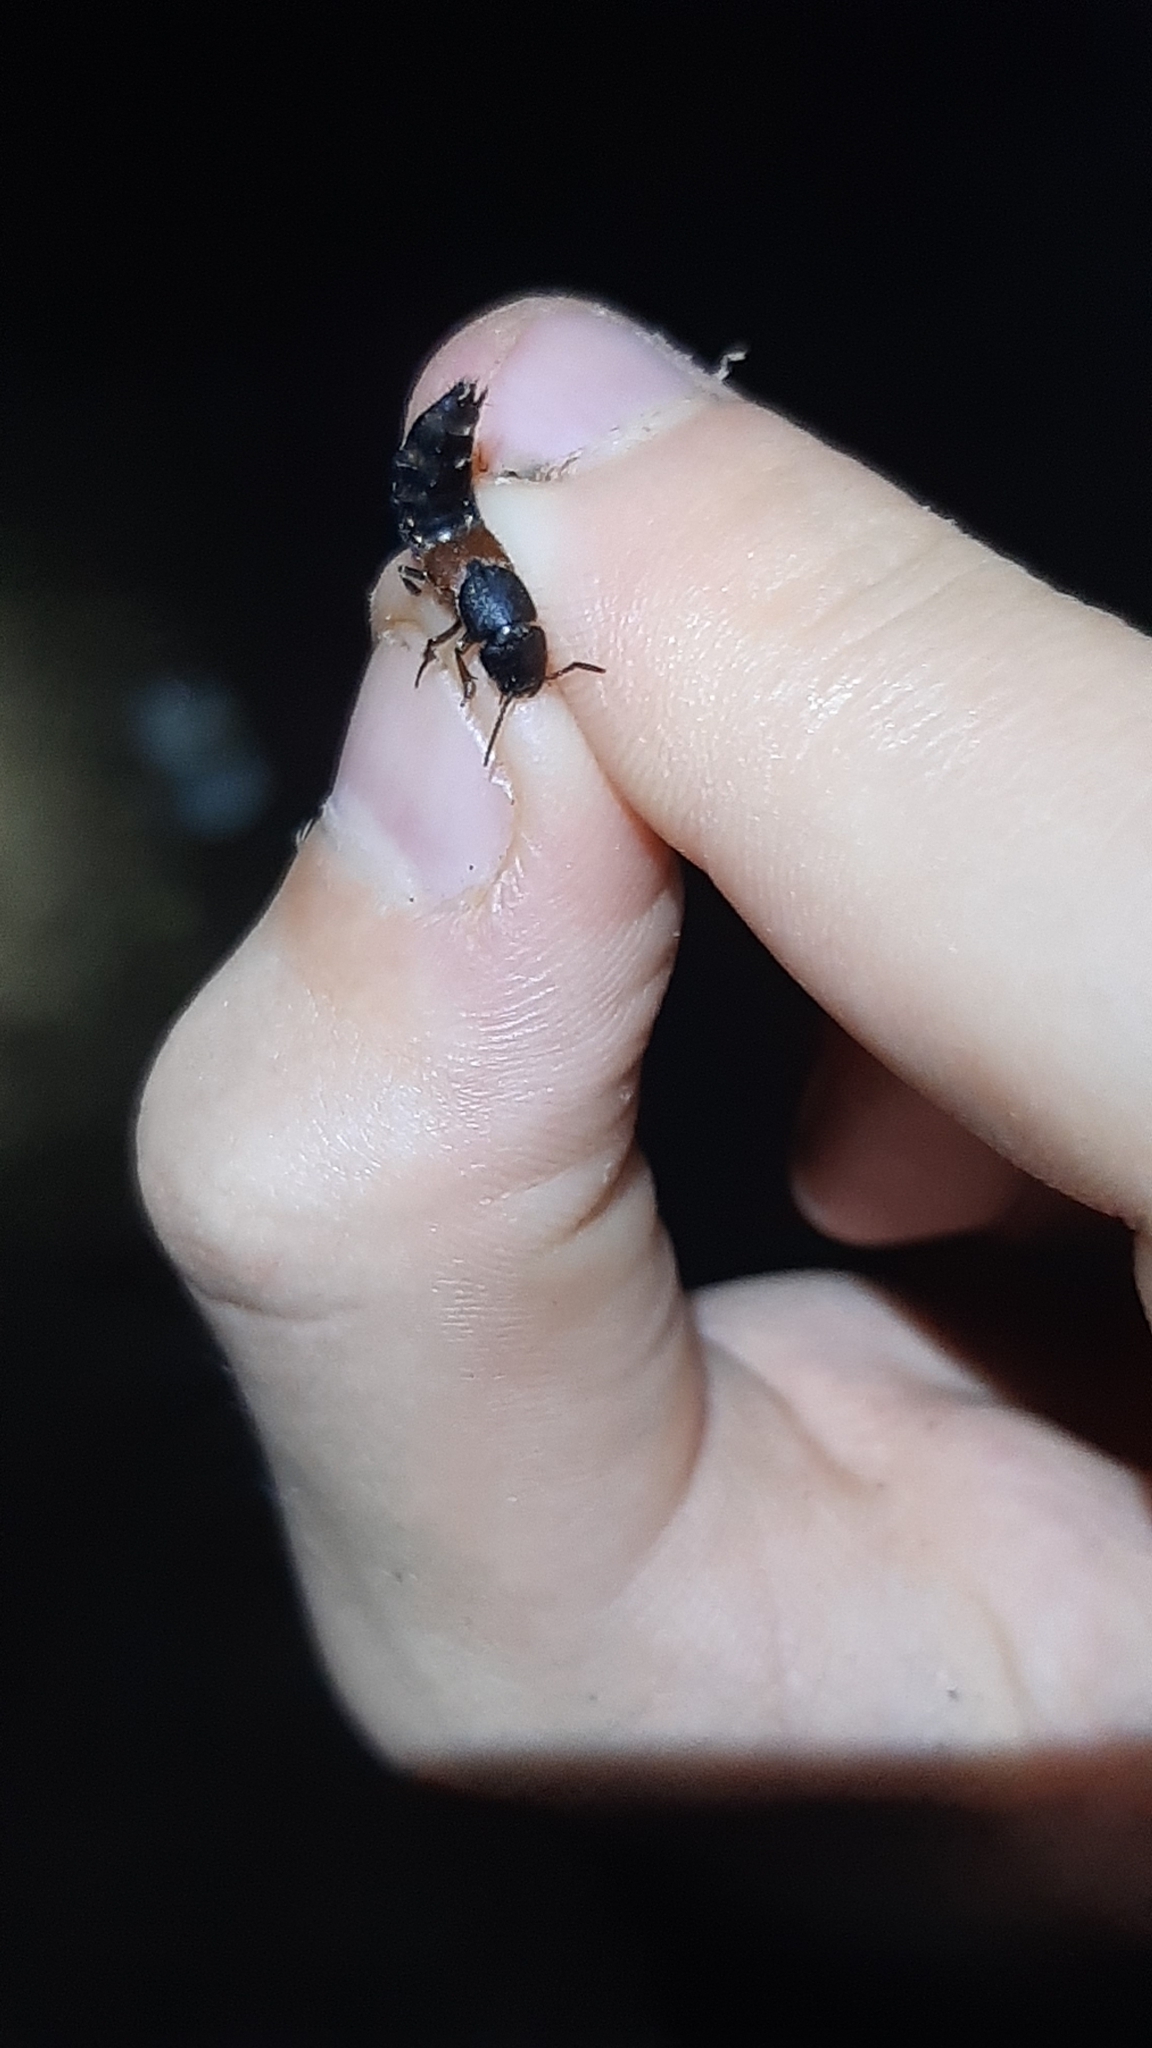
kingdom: Animalia
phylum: Arthropoda
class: Insecta
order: Coleoptera
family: Staphylinidae
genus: Platydracus
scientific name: Platydracus stercorarius
